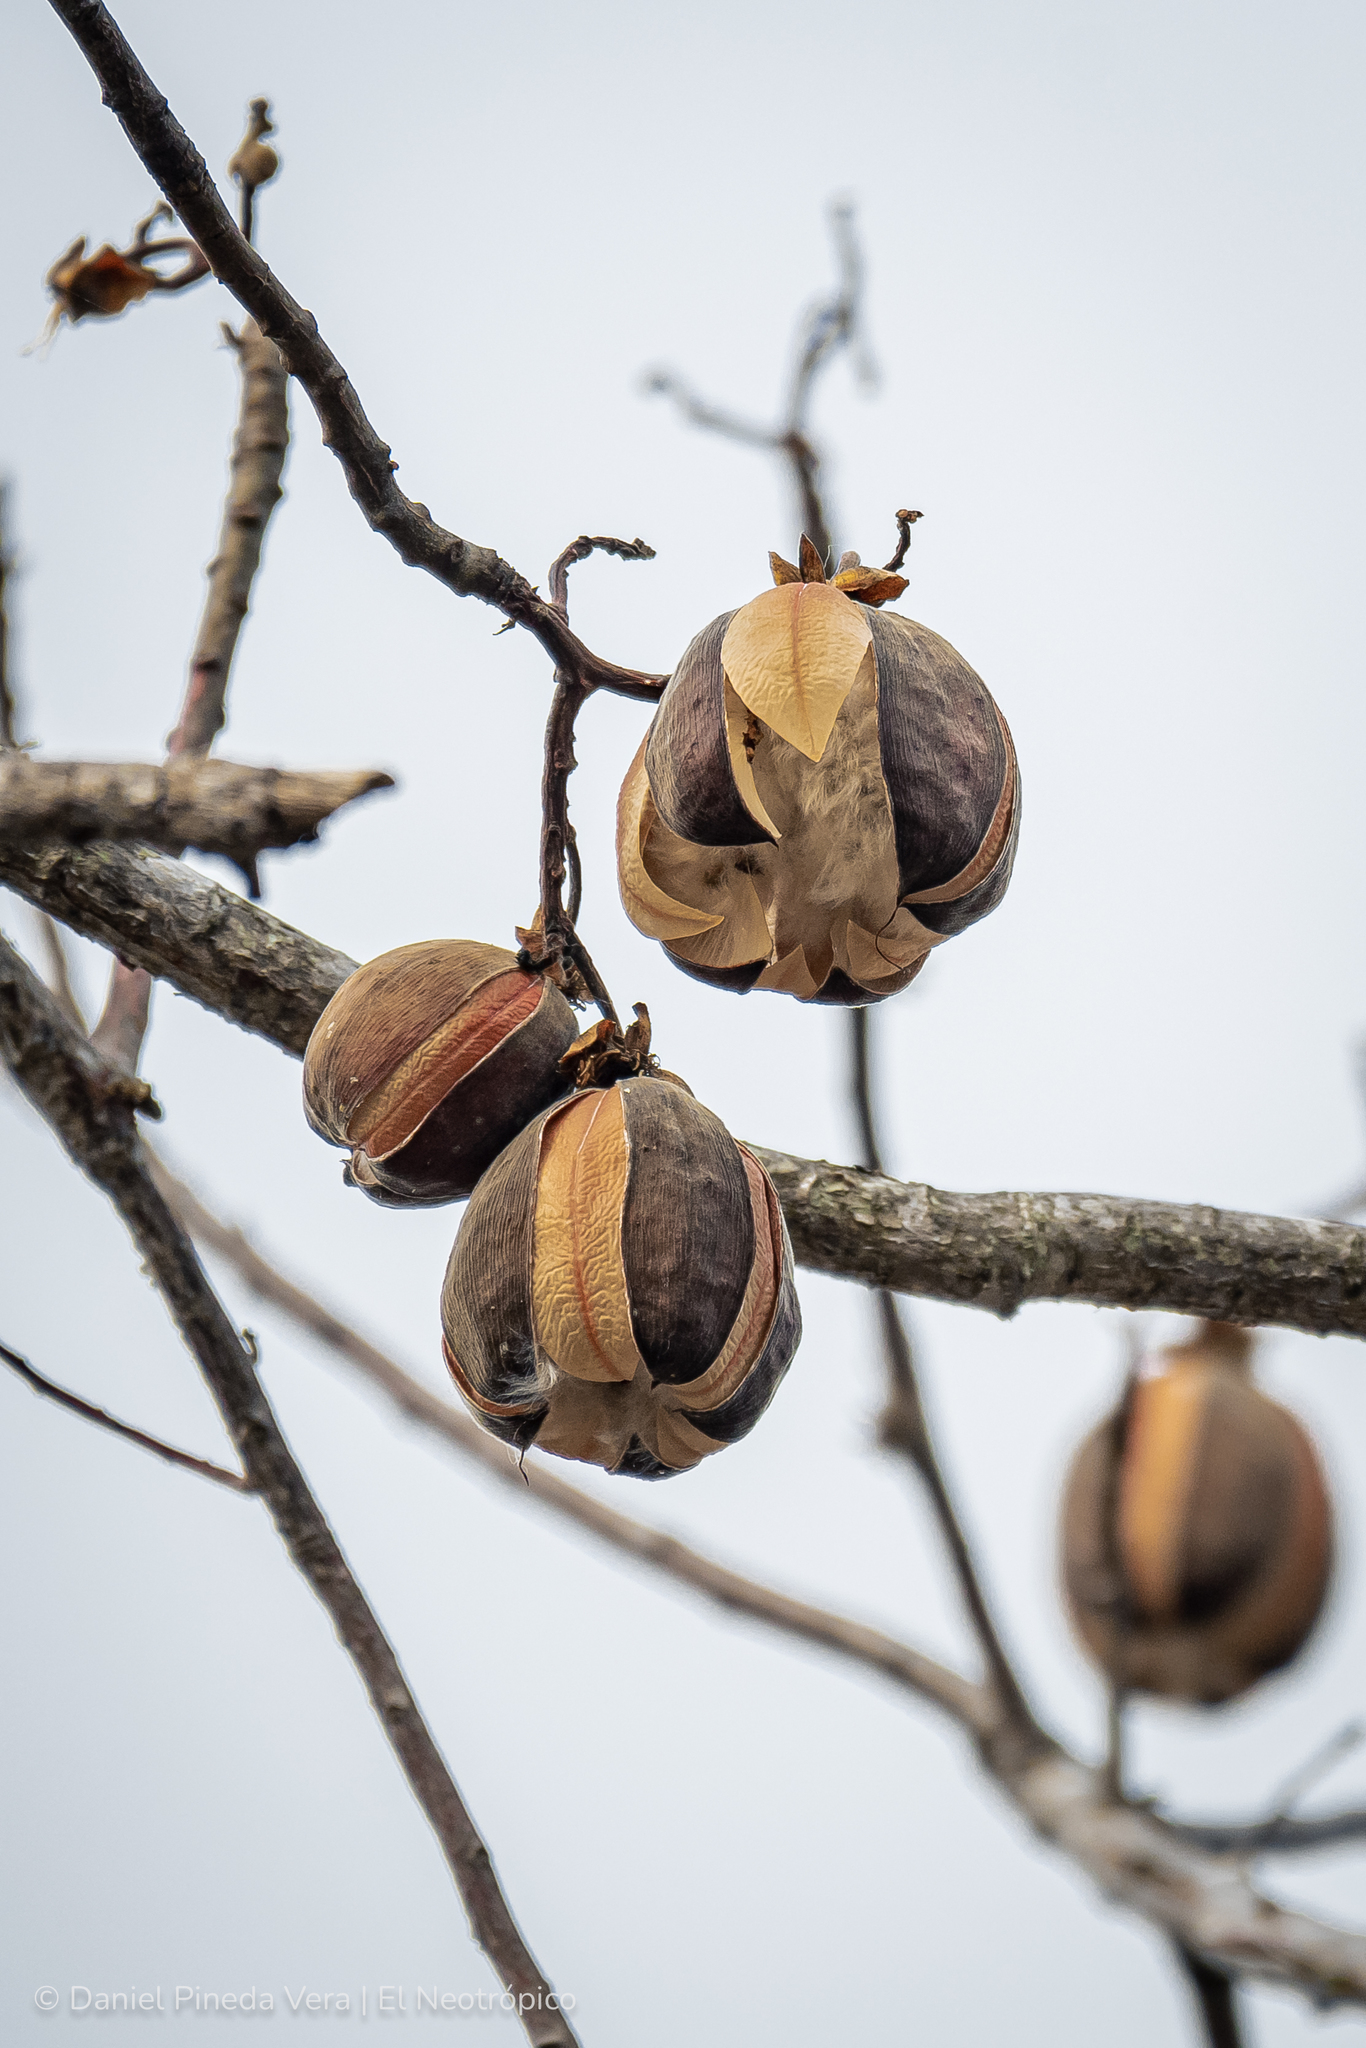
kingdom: Plantae
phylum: Tracheophyta
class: Magnoliopsida
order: Malvales
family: Cochlospermaceae
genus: Cochlospermum
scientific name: Cochlospermum vitifolium
